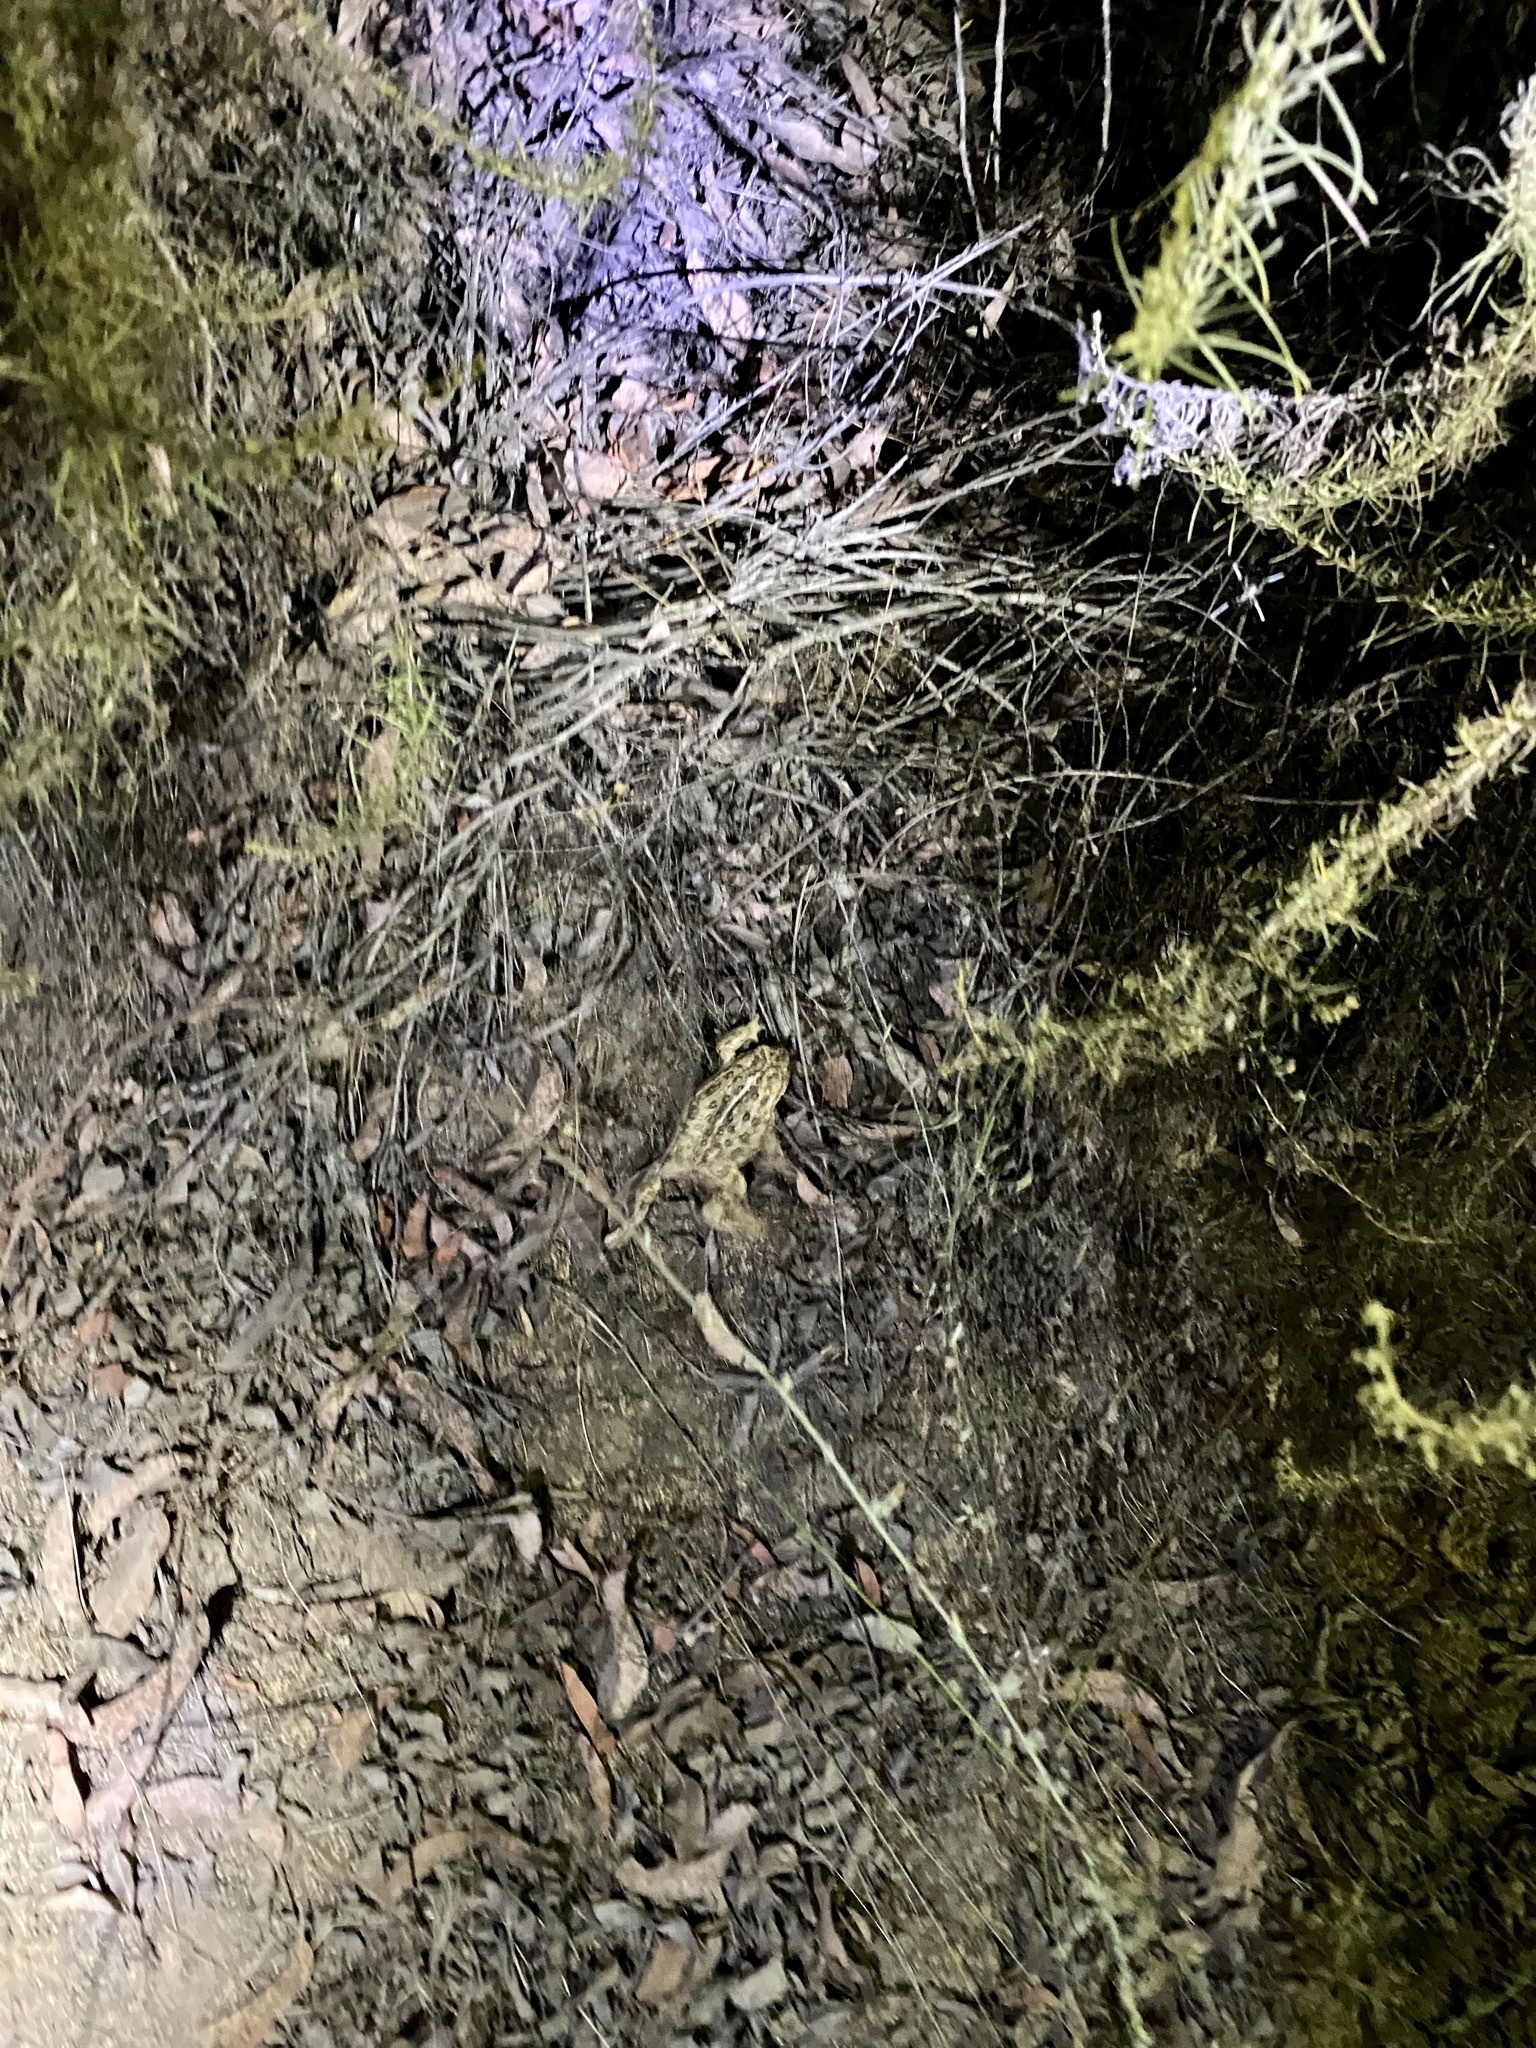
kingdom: Animalia
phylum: Chordata
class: Amphibia
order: Anura
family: Bufonidae
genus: Anaxyrus
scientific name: Anaxyrus boreas
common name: Western toad
